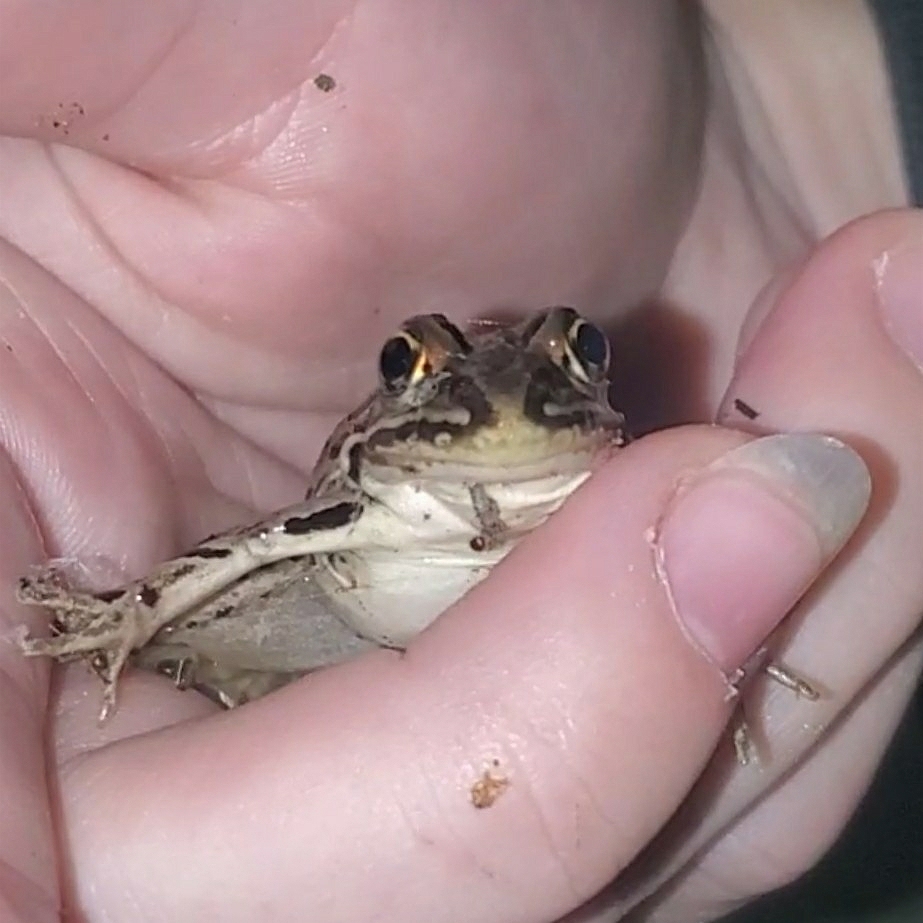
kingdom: Animalia
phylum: Chordata
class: Amphibia
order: Anura
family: Ranidae
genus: Lithobates
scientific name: Lithobates pipiens
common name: Northern leopard frog
